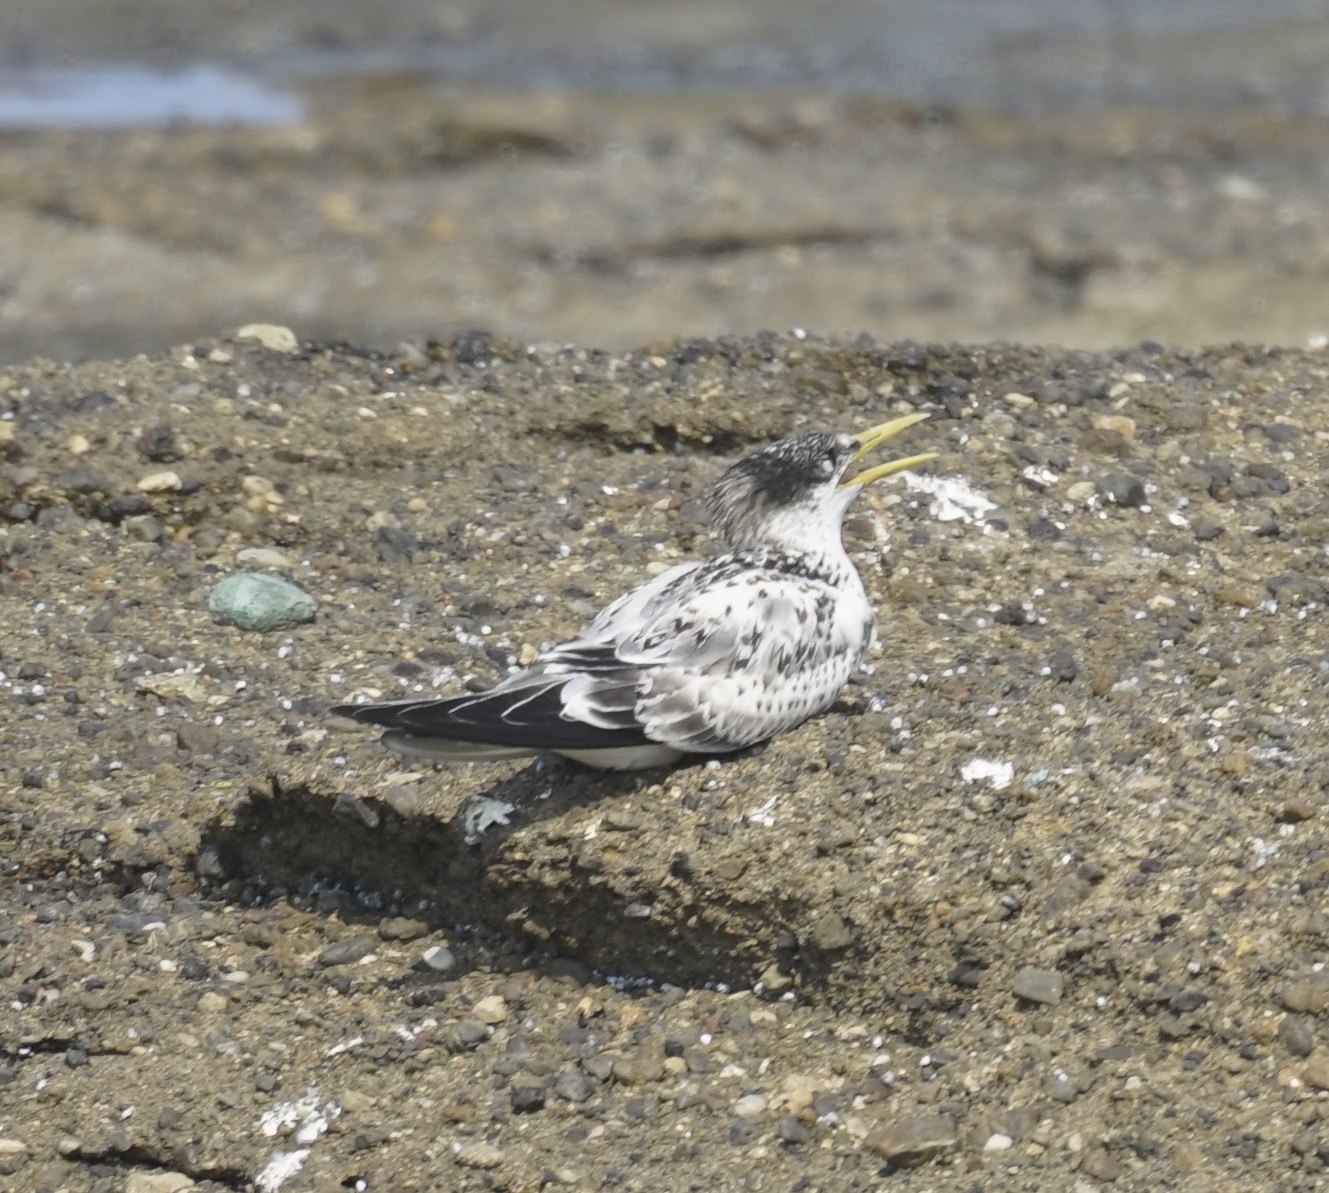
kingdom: Animalia
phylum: Chordata
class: Aves
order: Charadriiformes
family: Laridae
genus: Thalasseus
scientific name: Thalasseus bergii
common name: Greater crested tern
